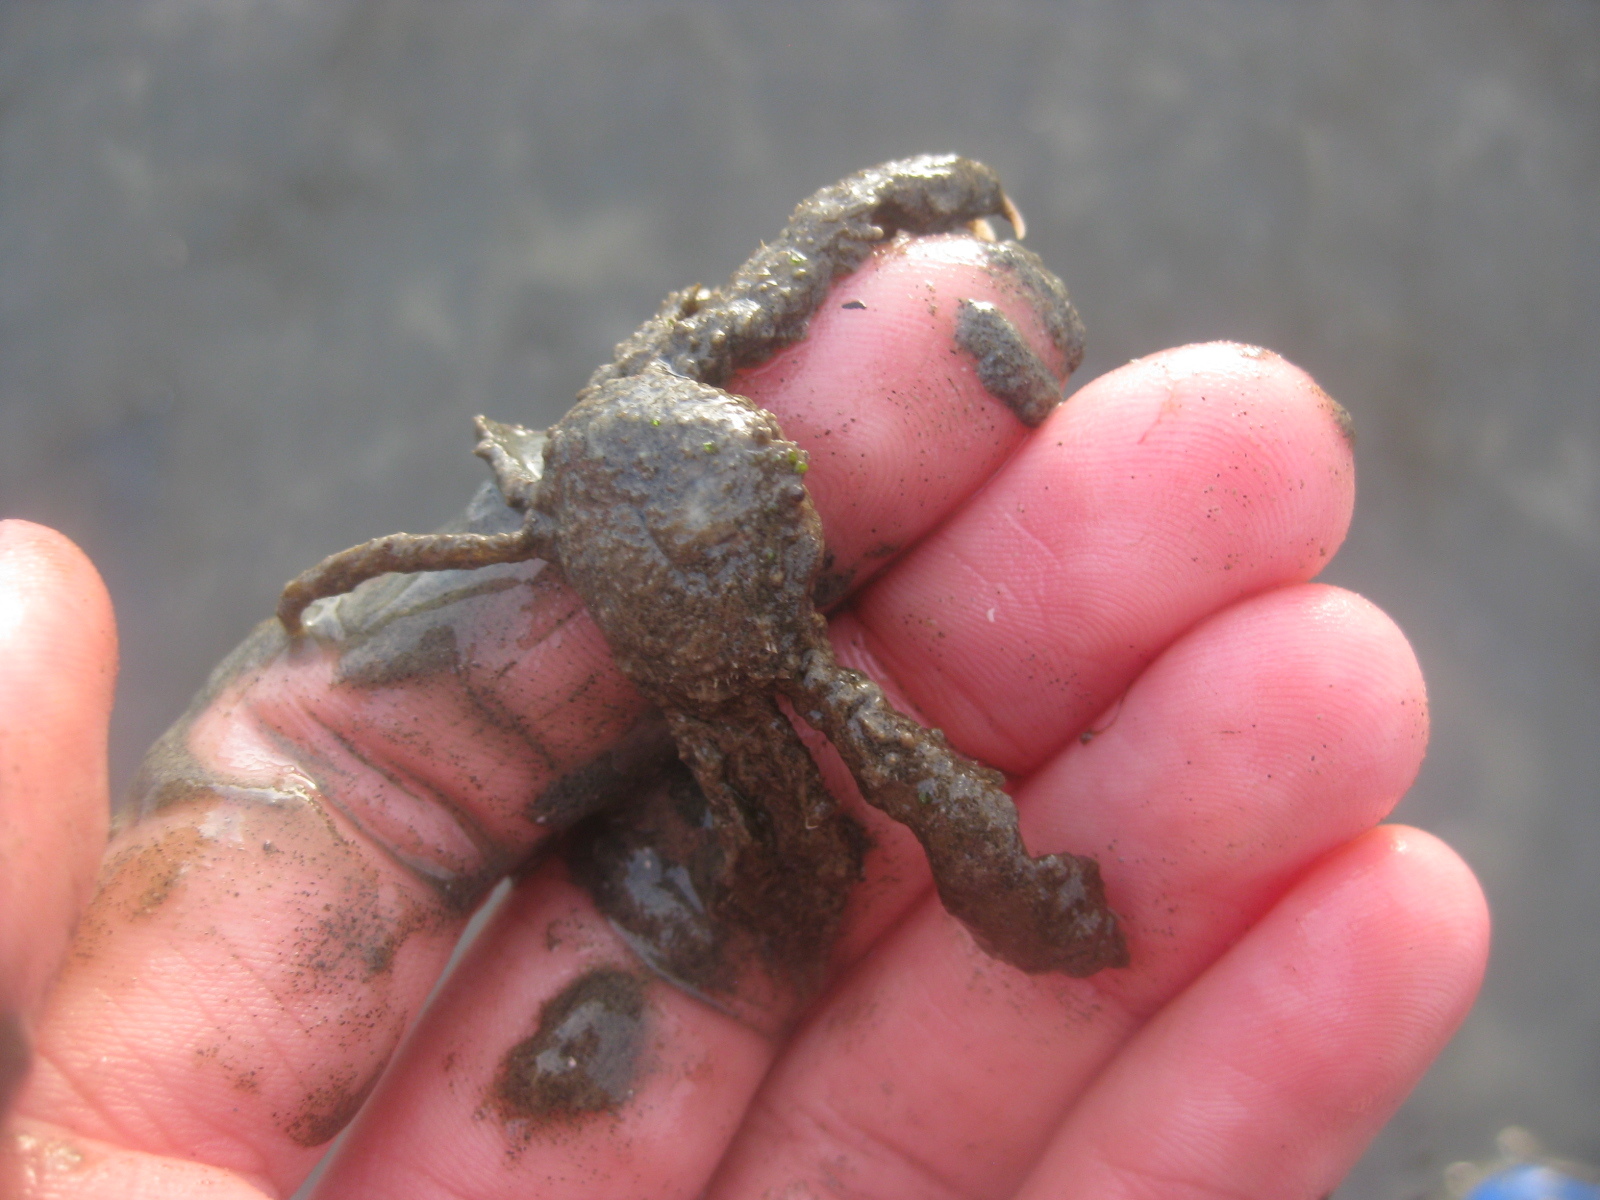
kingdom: Animalia
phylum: Arthropoda
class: Malacostraca
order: Decapoda
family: Hymenosomatidae
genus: Halicarcinus
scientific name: Halicarcinus whitei
